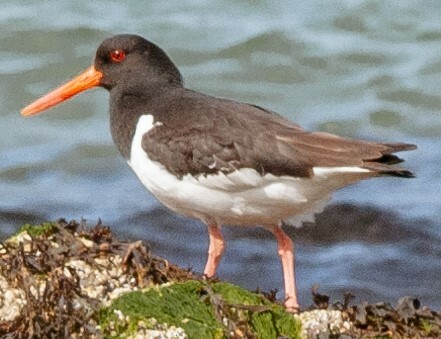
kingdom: Animalia
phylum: Chordata
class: Aves
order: Charadriiformes
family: Haematopodidae
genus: Haematopus
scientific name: Haematopus ostralegus
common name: Eurasian oystercatcher
